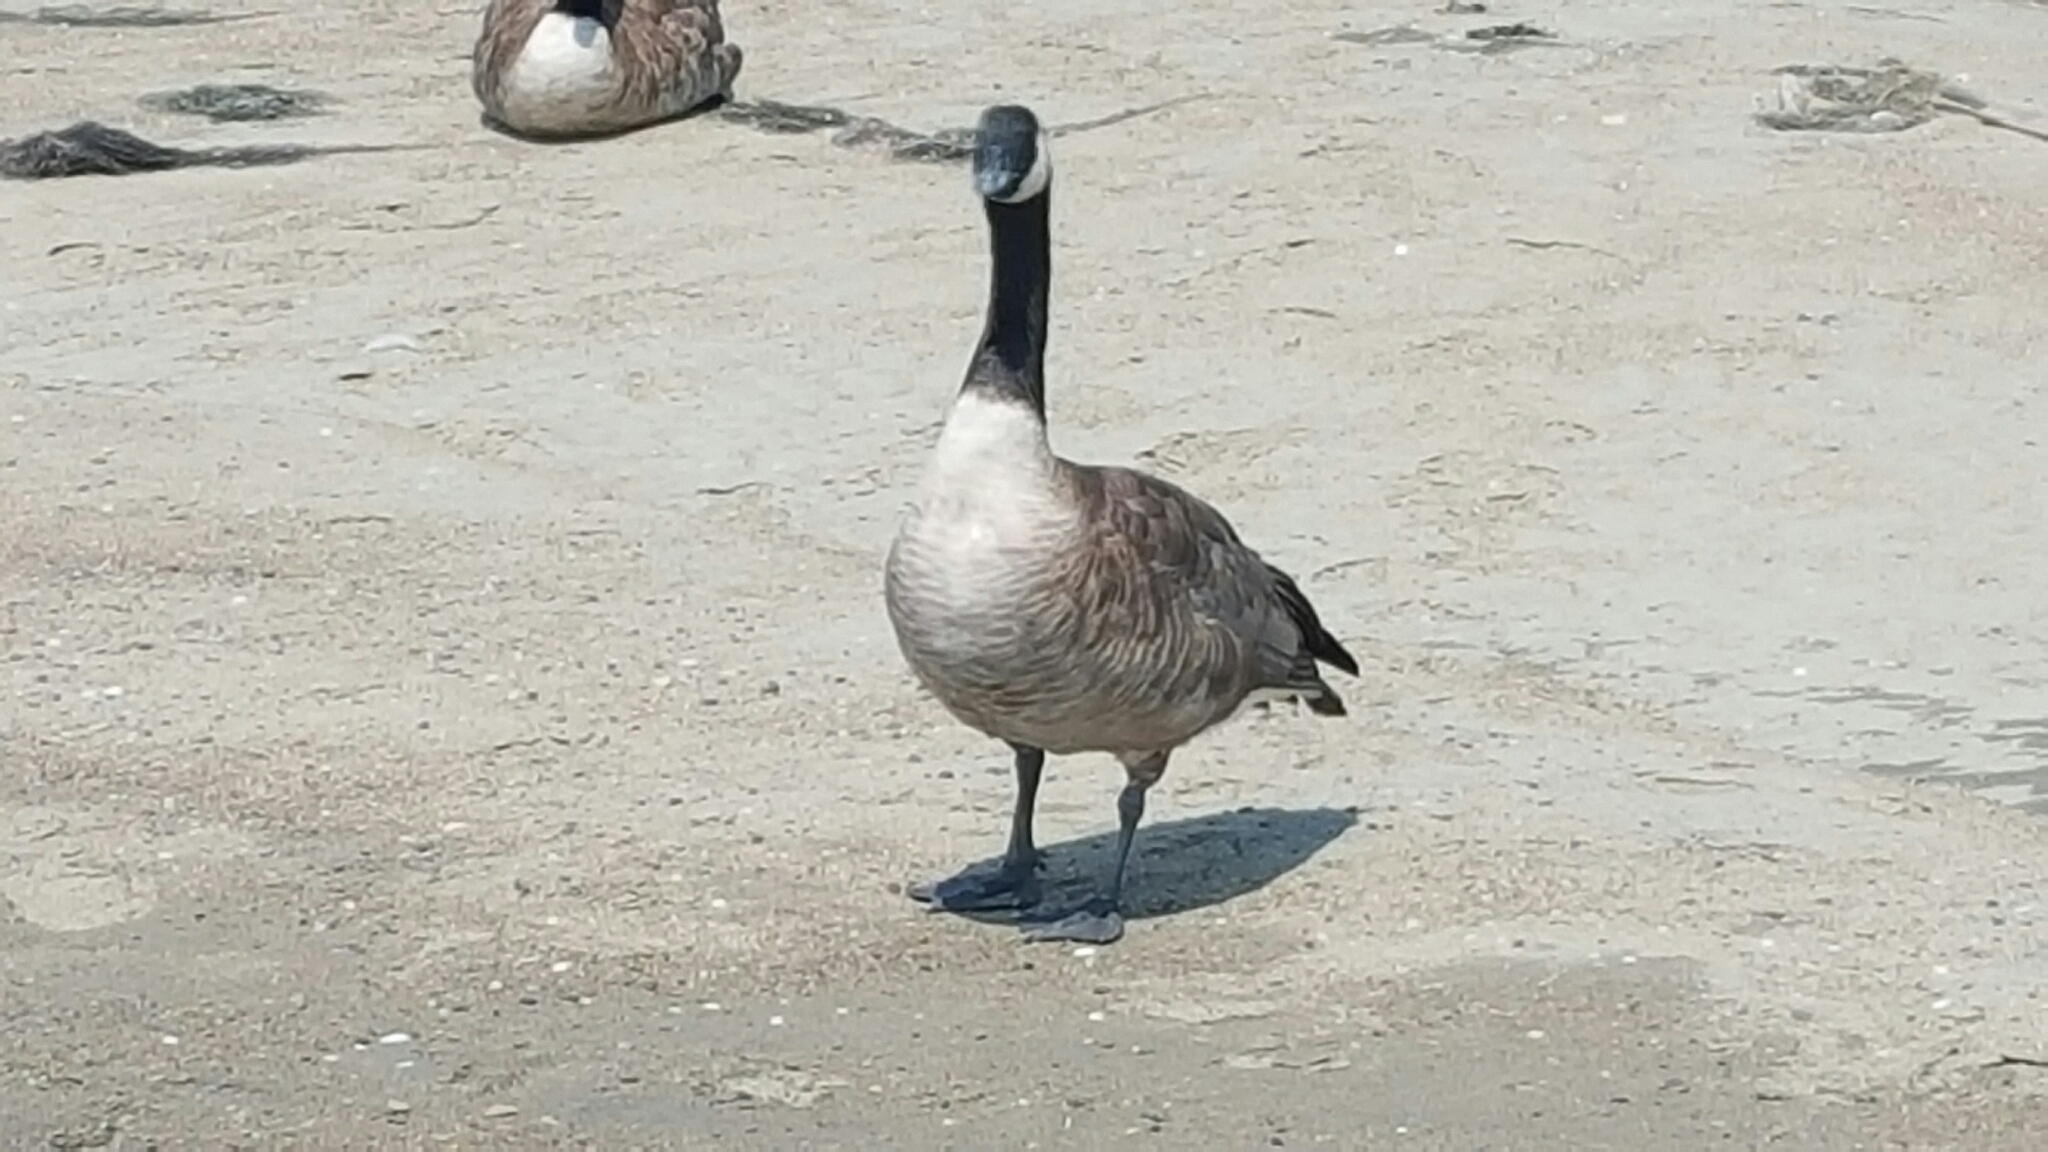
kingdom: Animalia
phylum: Chordata
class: Aves
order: Anseriformes
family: Anatidae
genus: Branta
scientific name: Branta canadensis
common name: Canada goose
